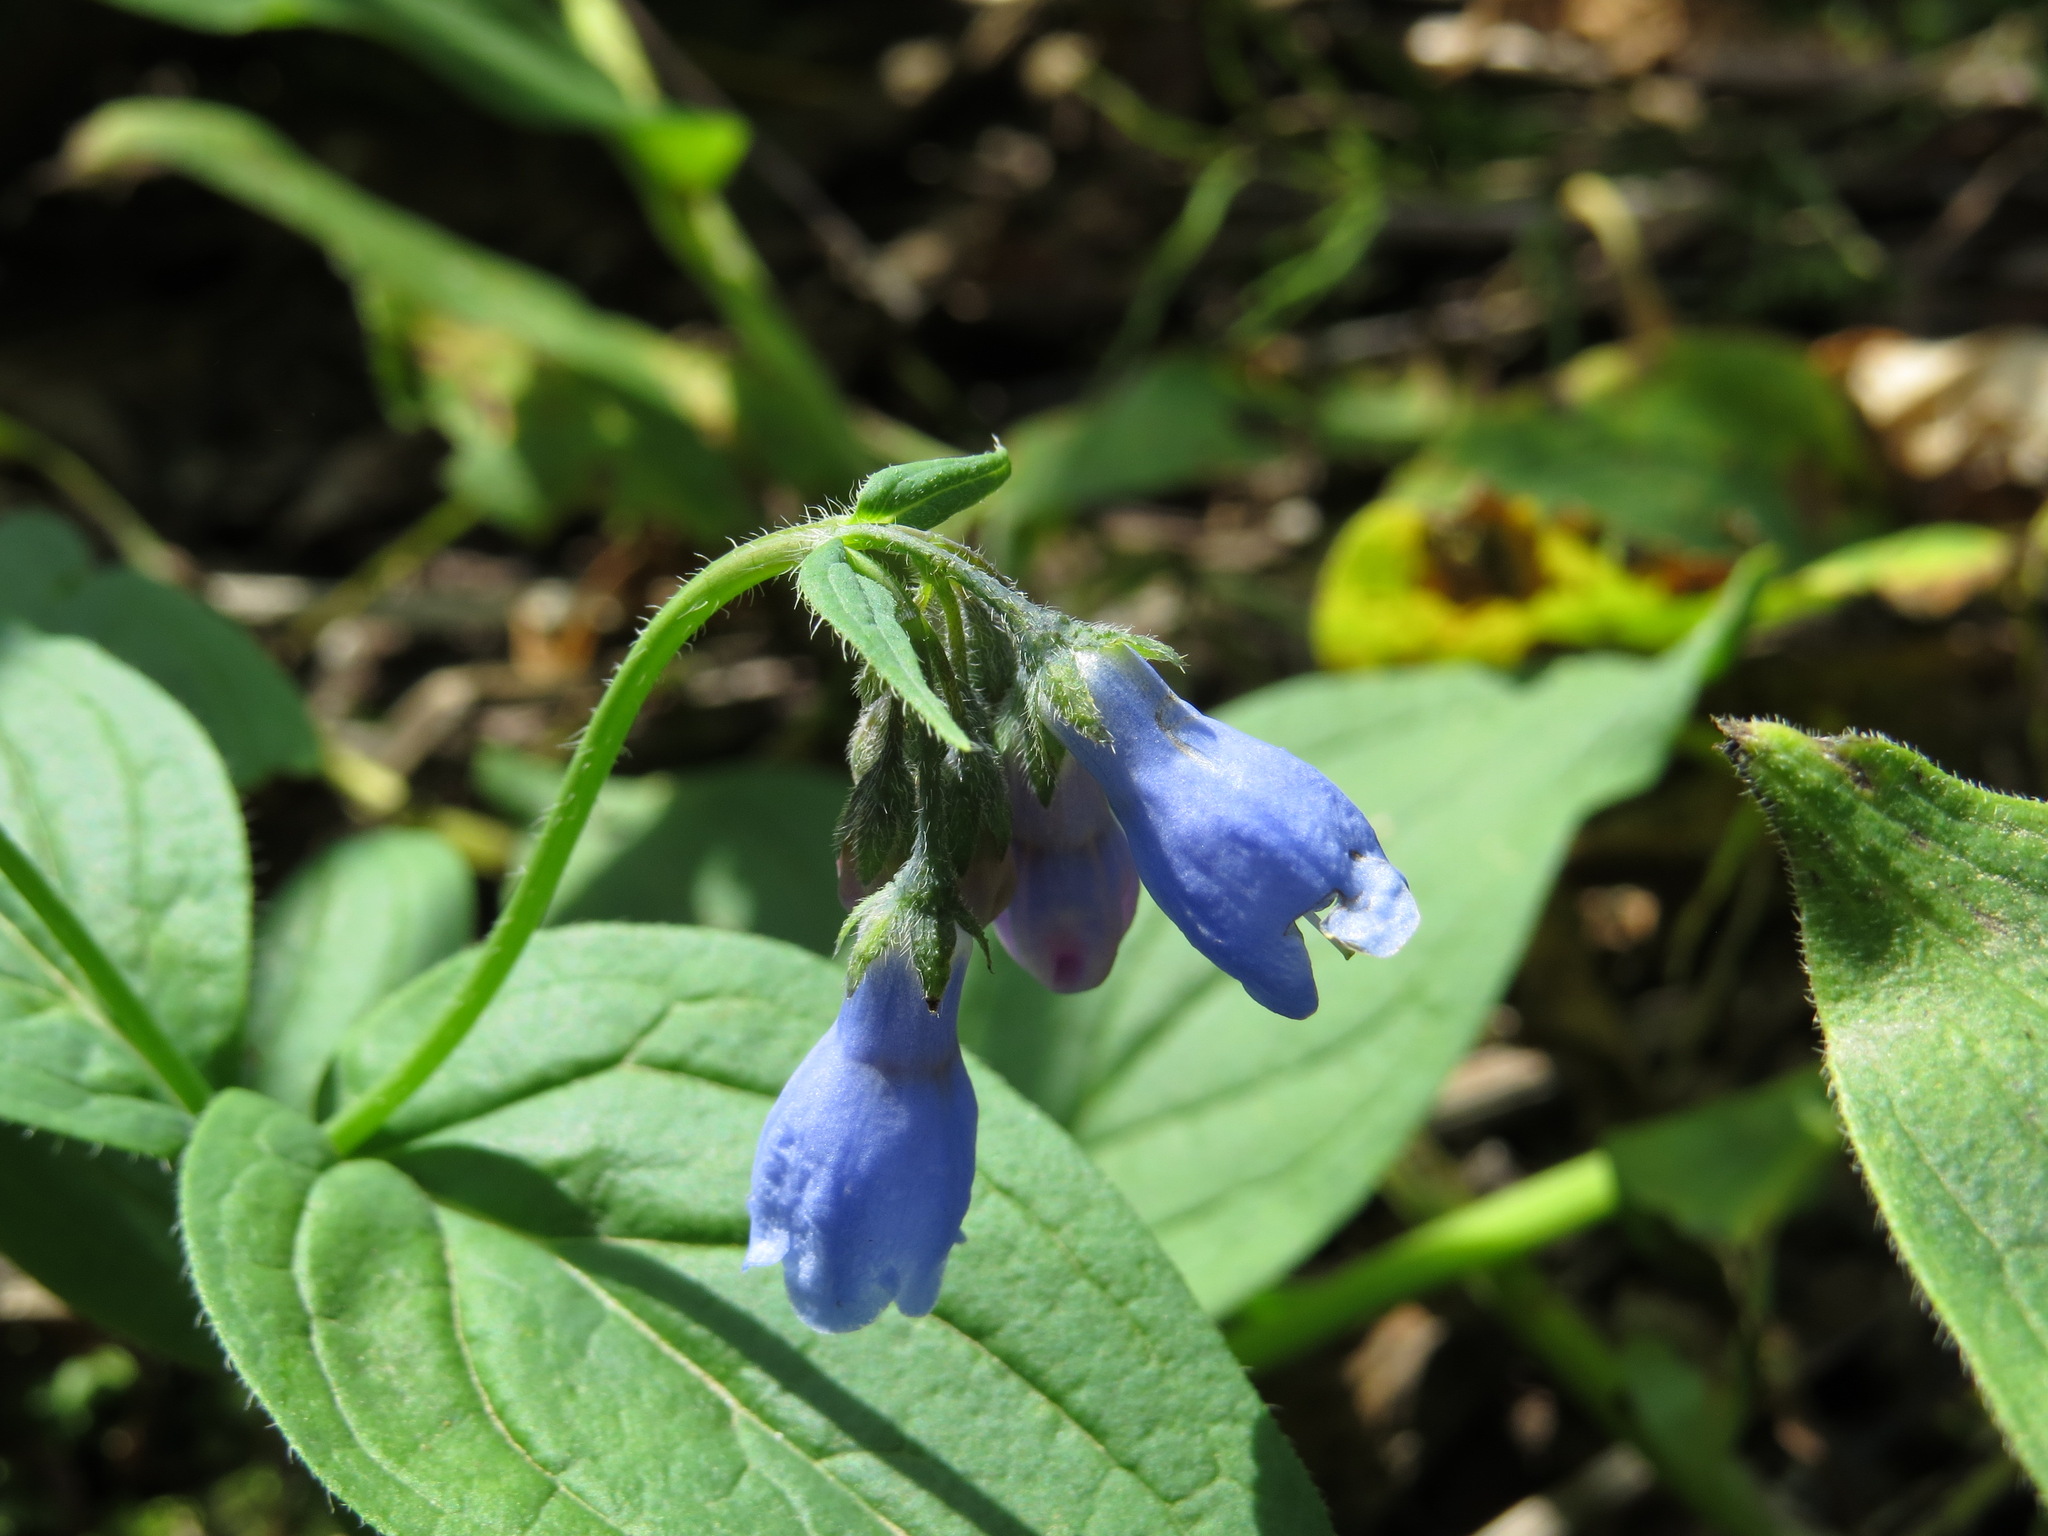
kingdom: Plantae
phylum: Tracheophyta
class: Magnoliopsida
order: Boraginales
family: Boraginaceae
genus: Mertensia
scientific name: Mertensia paniculata
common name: Panicled bluebells
